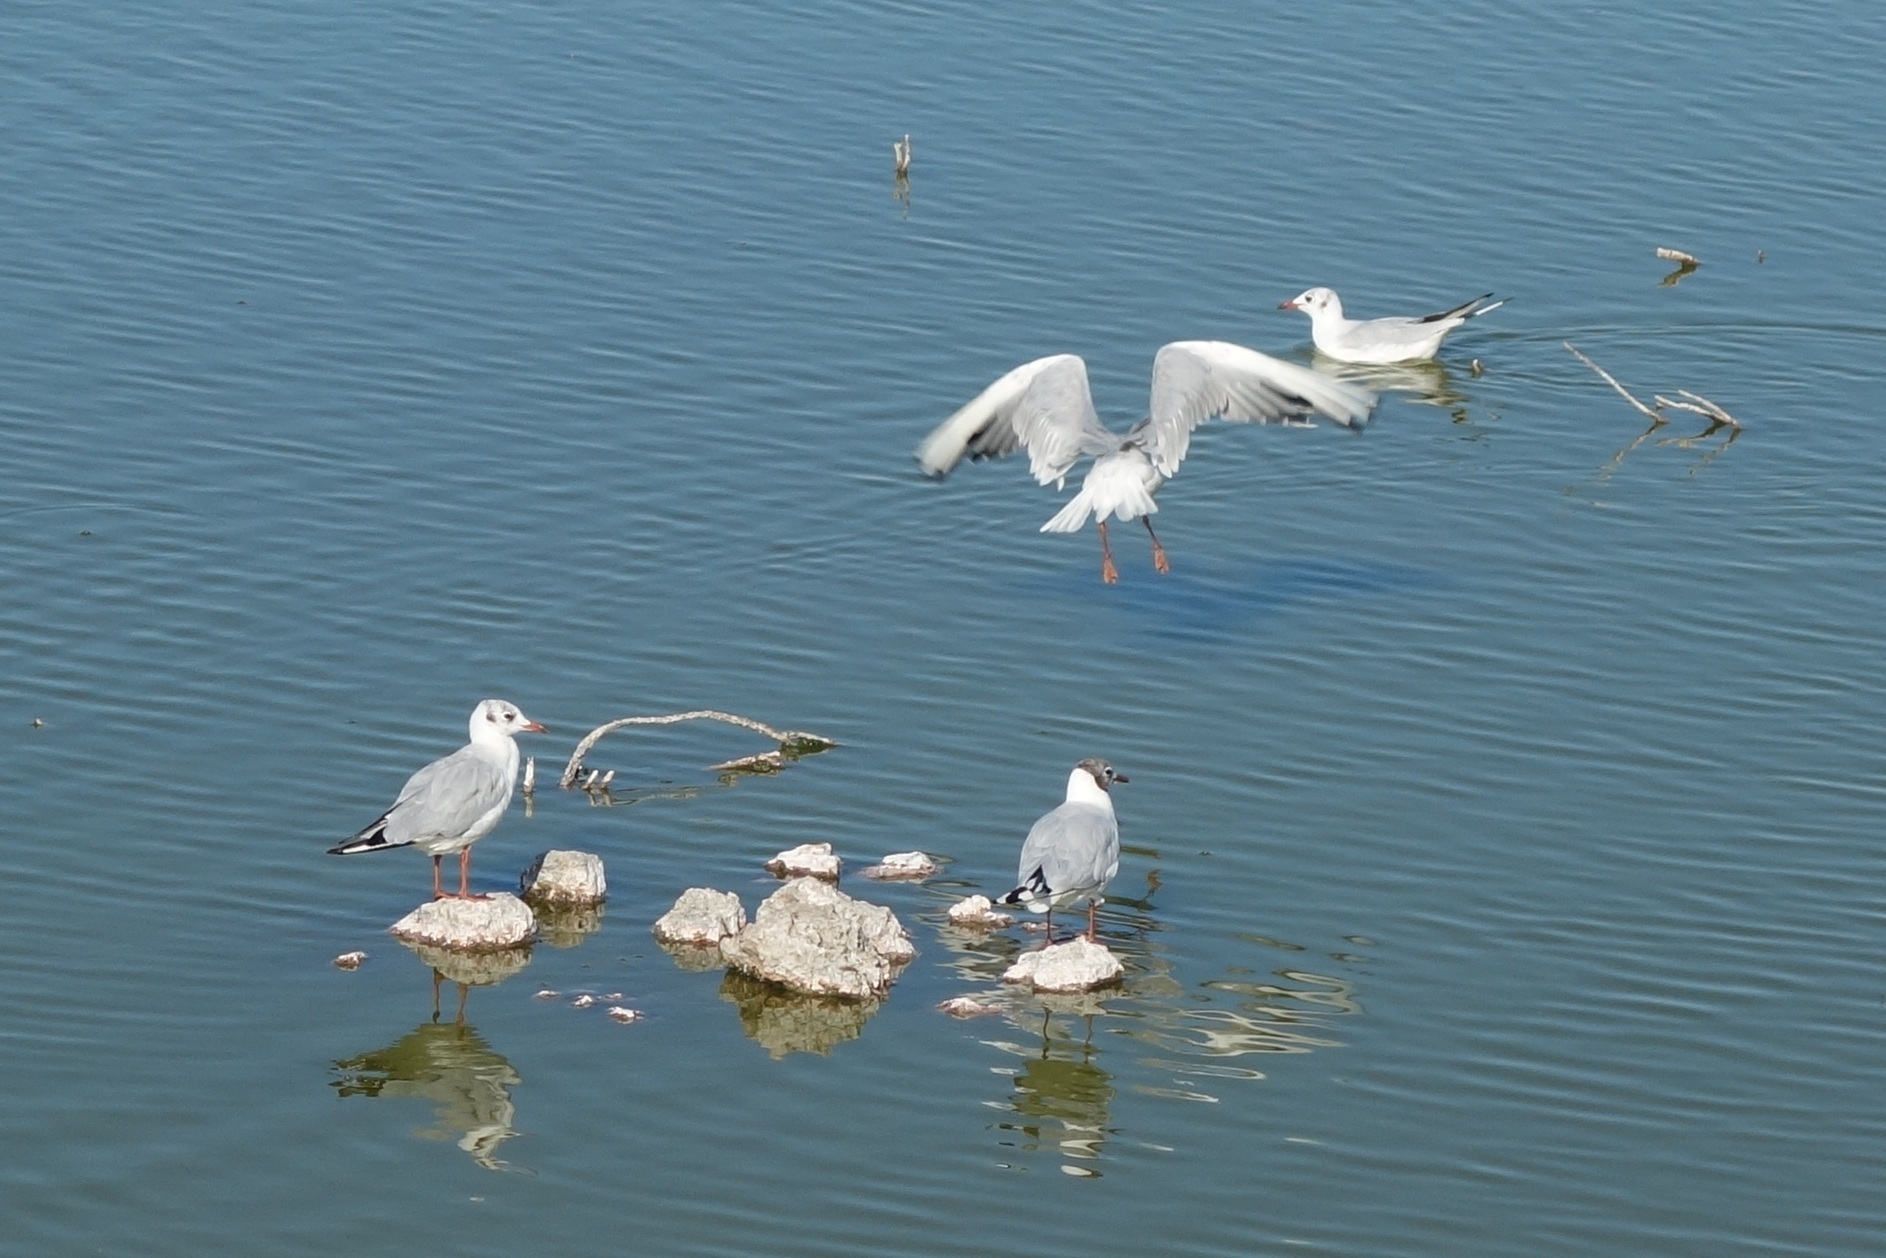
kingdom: Animalia
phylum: Chordata
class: Aves
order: Charadriiformes
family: Laridae
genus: Chroicocephalus
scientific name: Chroicocephalus ridibundus
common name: Black-headed gull
